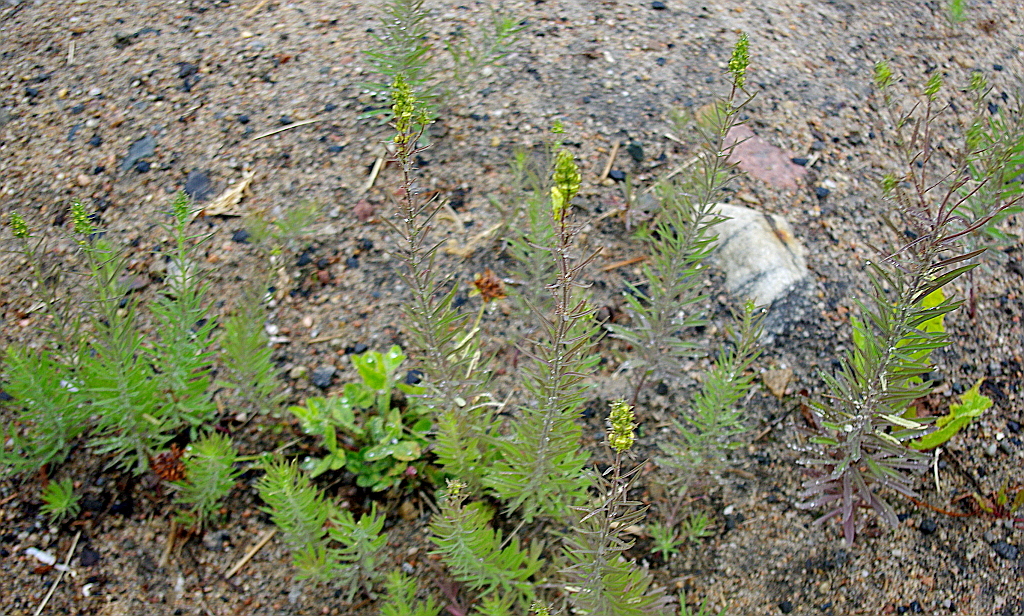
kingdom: Plantae
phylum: Tracheophyta
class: Magnoliopsida
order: Lamiales
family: Plantaginaceae
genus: Linaria
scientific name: Linaria vulgaris
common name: Butter and eggs
